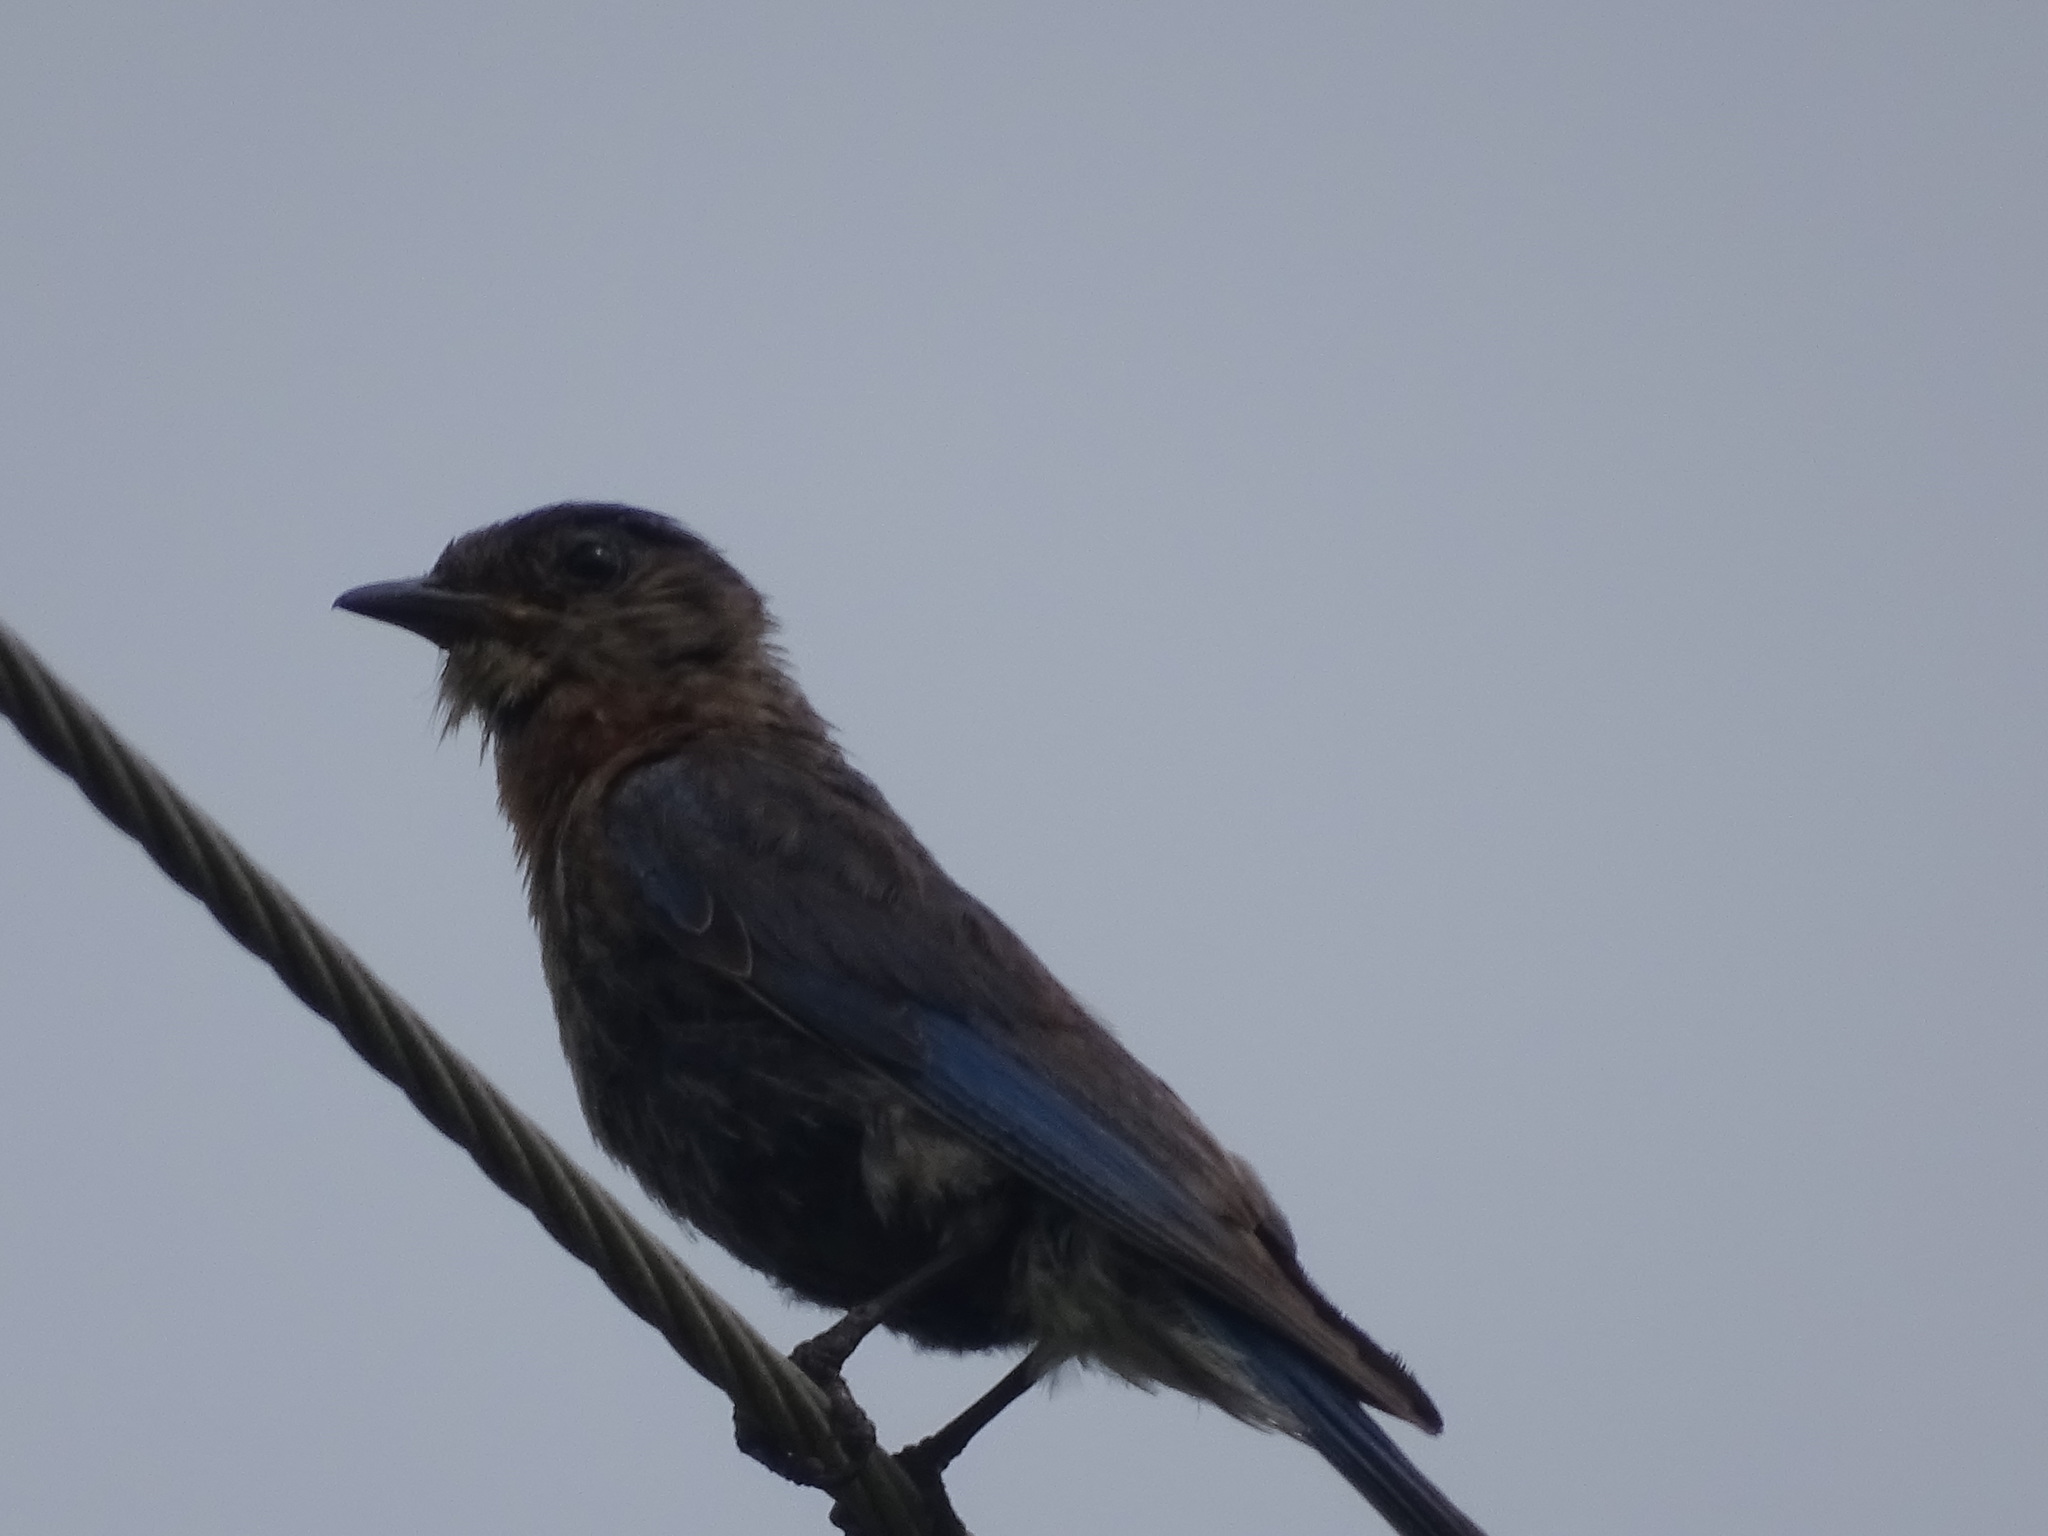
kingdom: Animalia
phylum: Chordata
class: Aves
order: Passeriformes
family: Turdidae
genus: Sialia
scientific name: Sialia sialis
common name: Eastern bluebird
